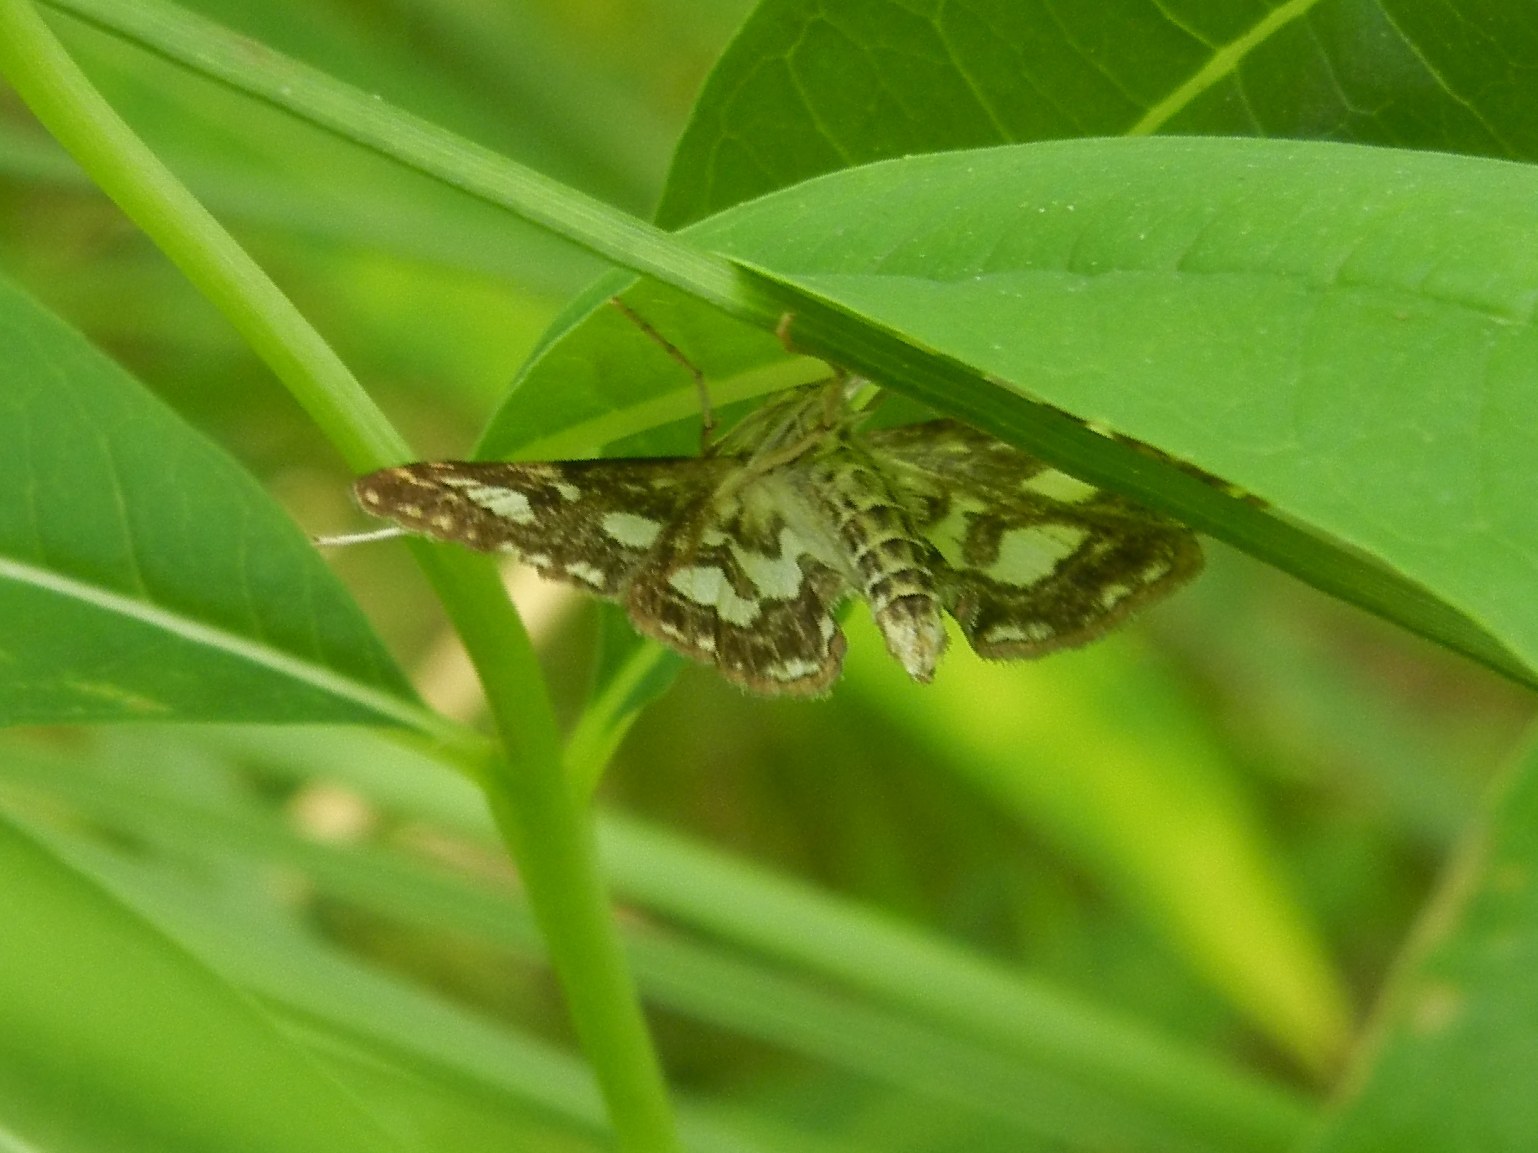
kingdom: Animalia
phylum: Arthropoda
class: Insecta
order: Lepidoptera
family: Crambidae
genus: Elophila
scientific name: Elophila nymphaeata
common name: Brown china-mark
